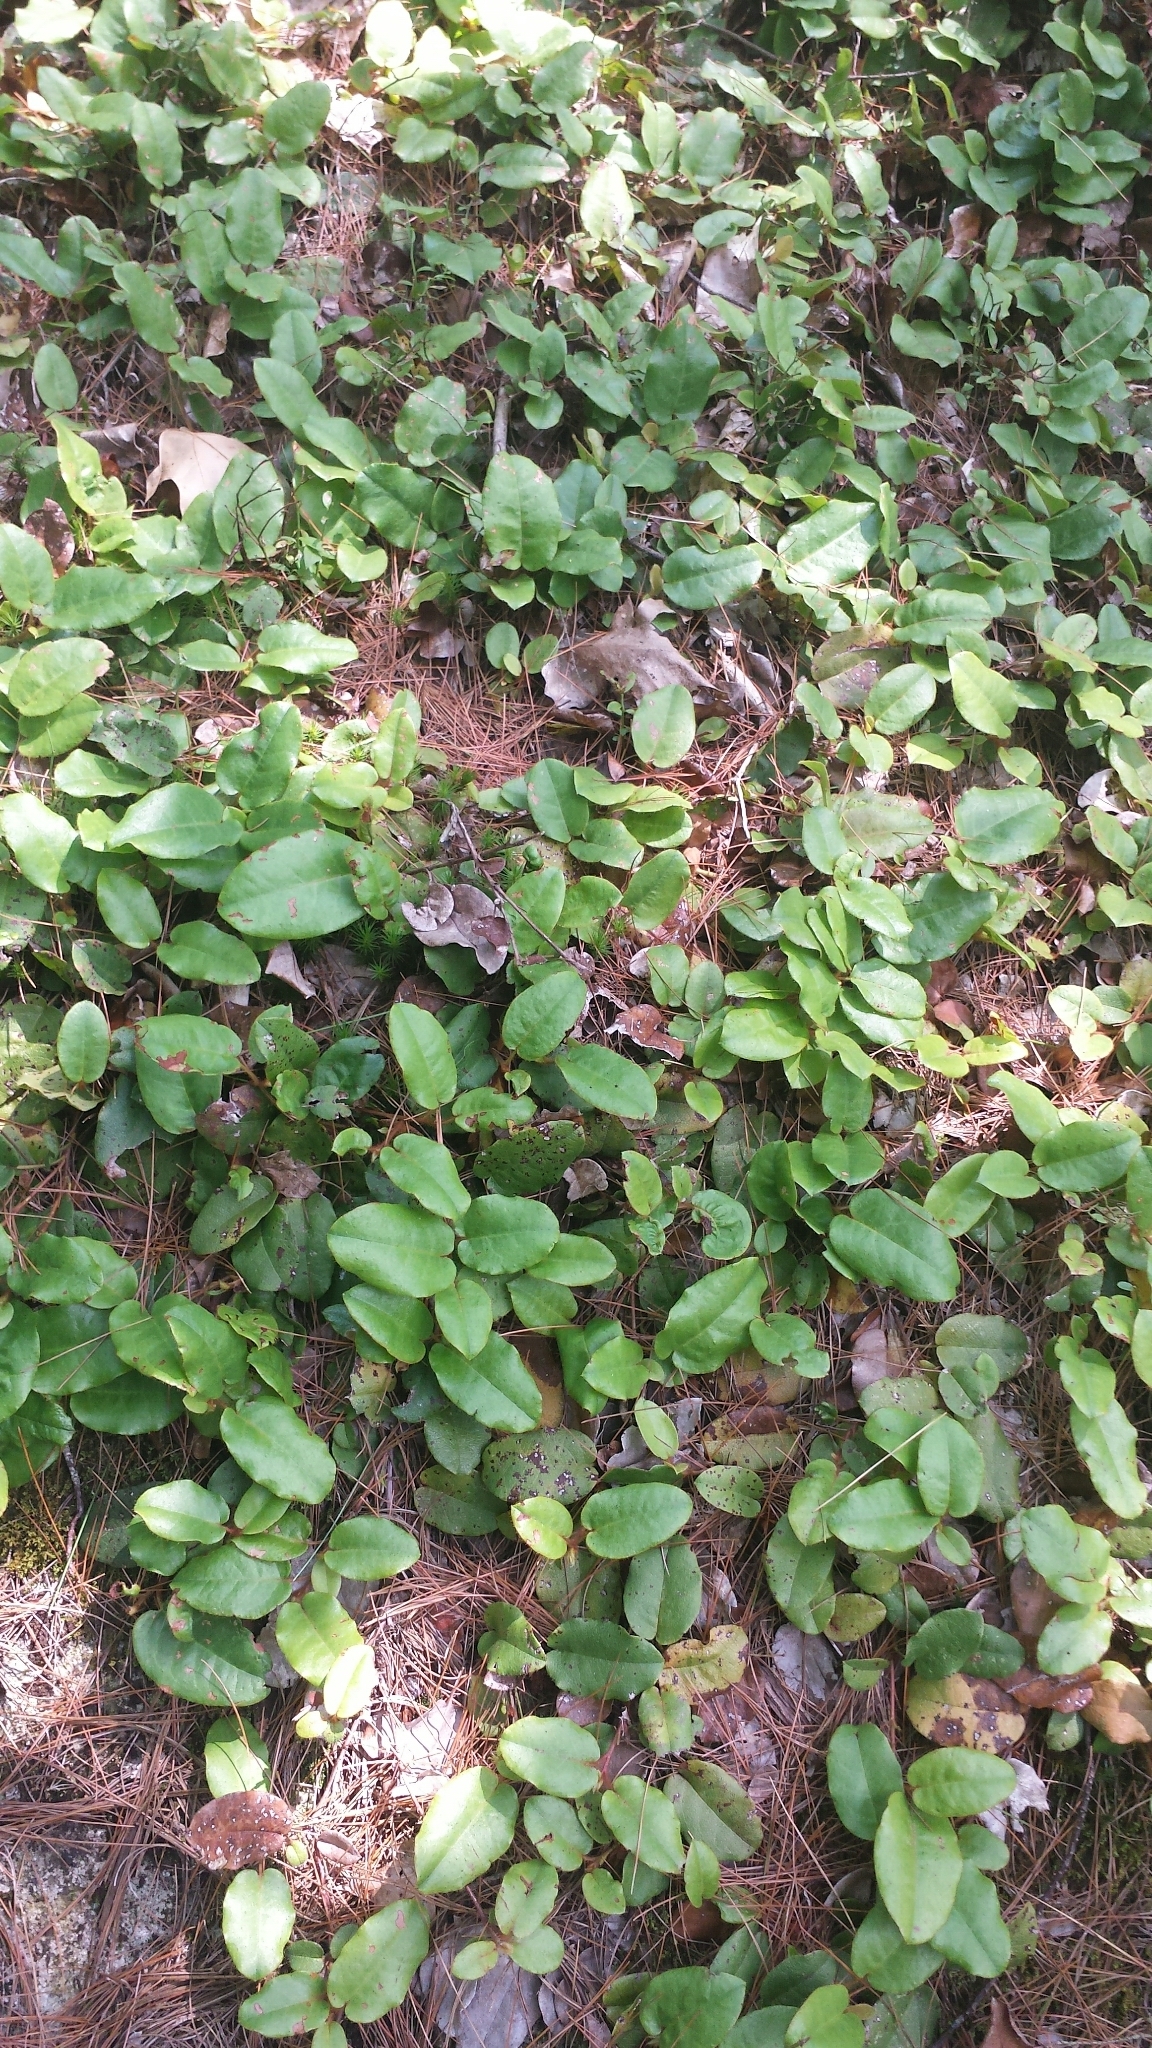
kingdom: Plantae
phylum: Tracheophyta
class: Magnoliopsida
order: Ericales
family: Ericaceae
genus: Epigaea
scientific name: Epigaea repens
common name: Gravelroot
